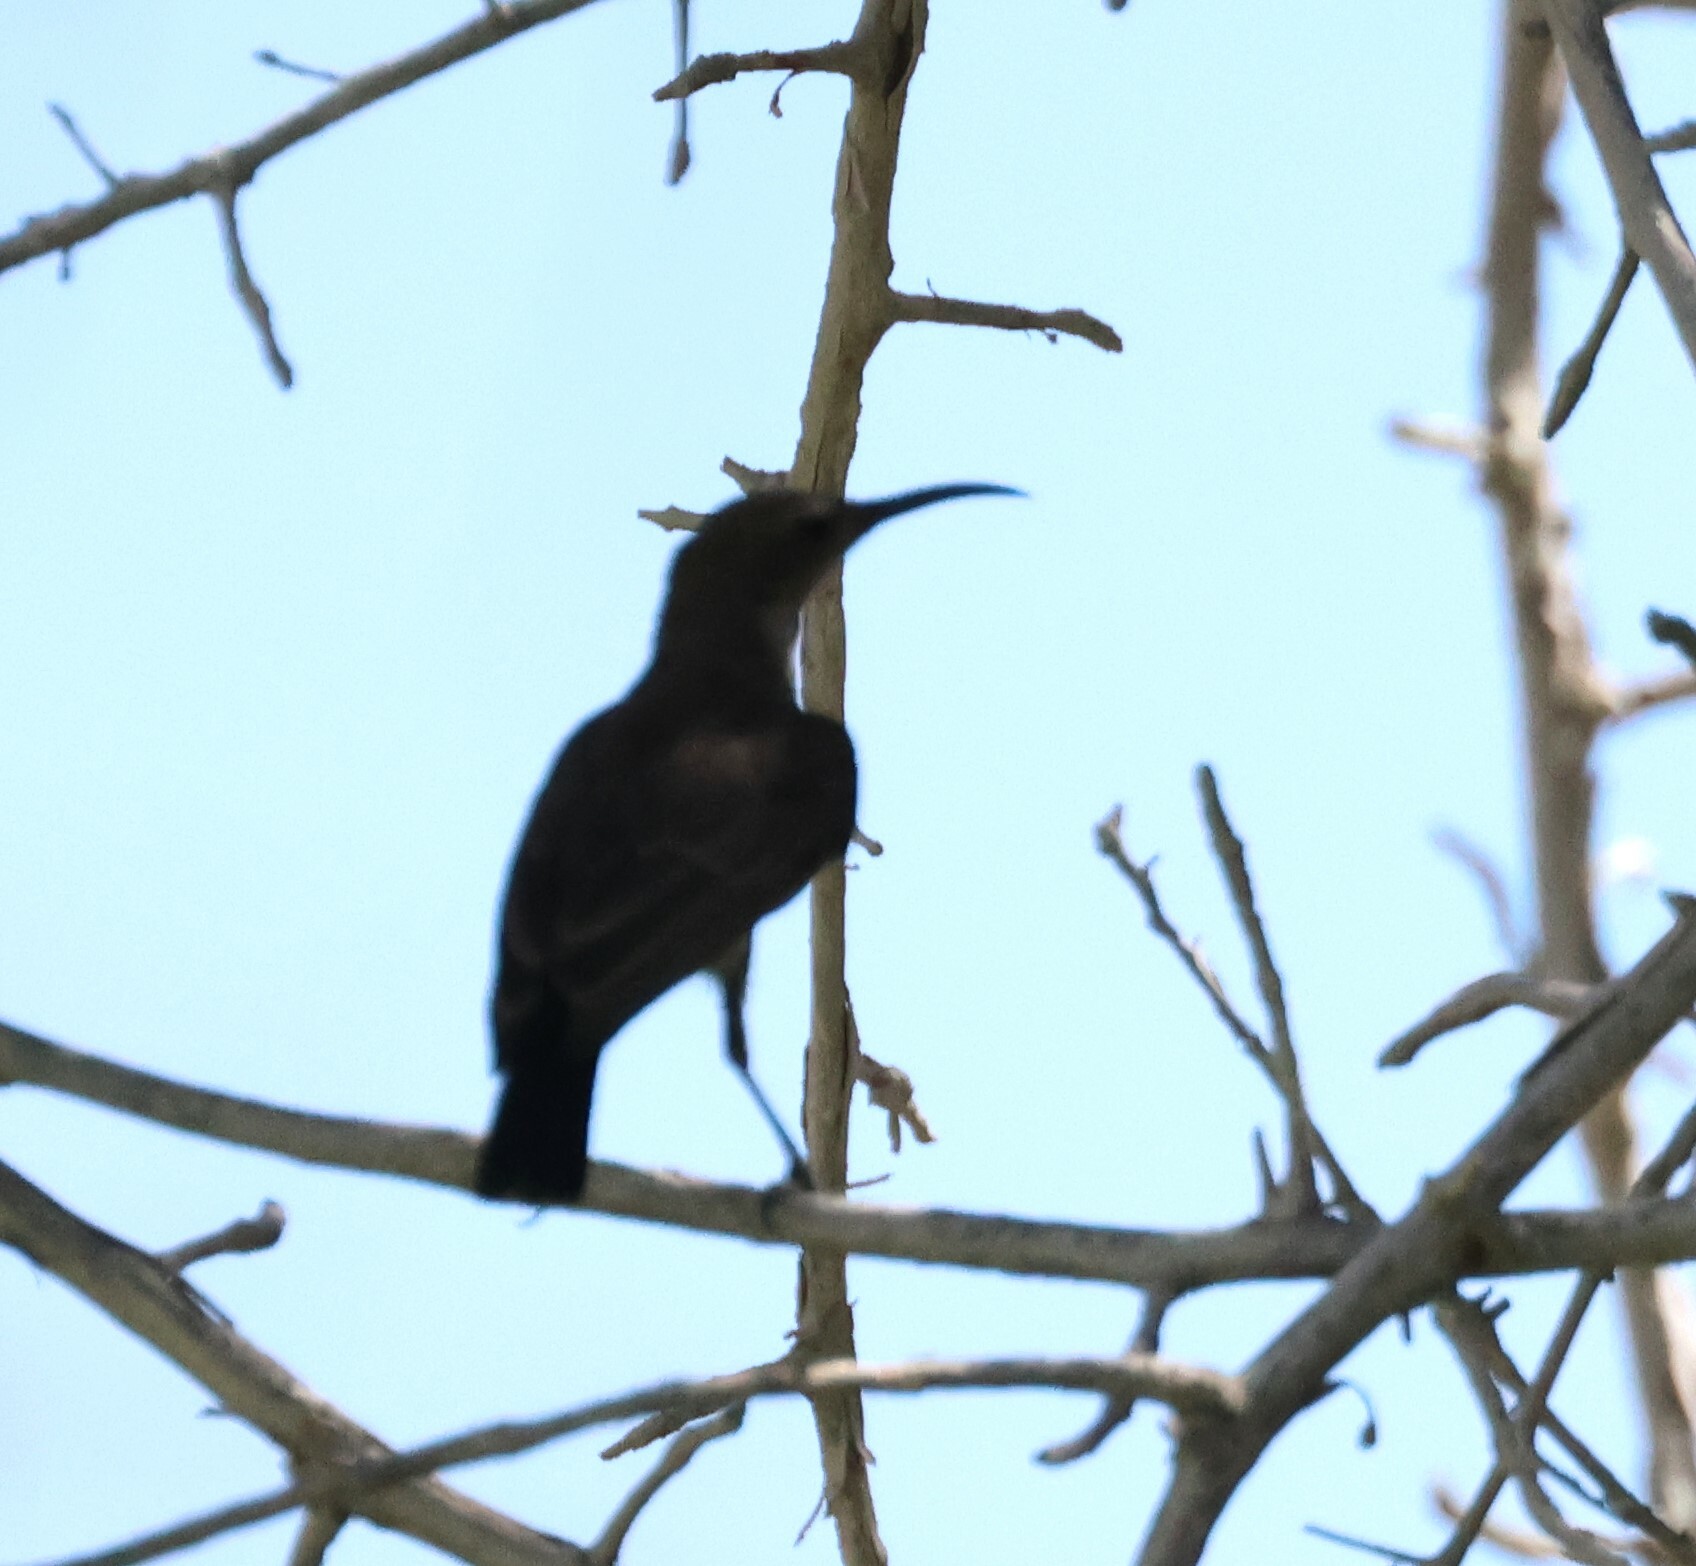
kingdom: Animalia
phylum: Chordata
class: Aves
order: Passeriformes
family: Nectariniidae
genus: Cinnyris
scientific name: Cinnyris fuscus
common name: Dusky sunbird
